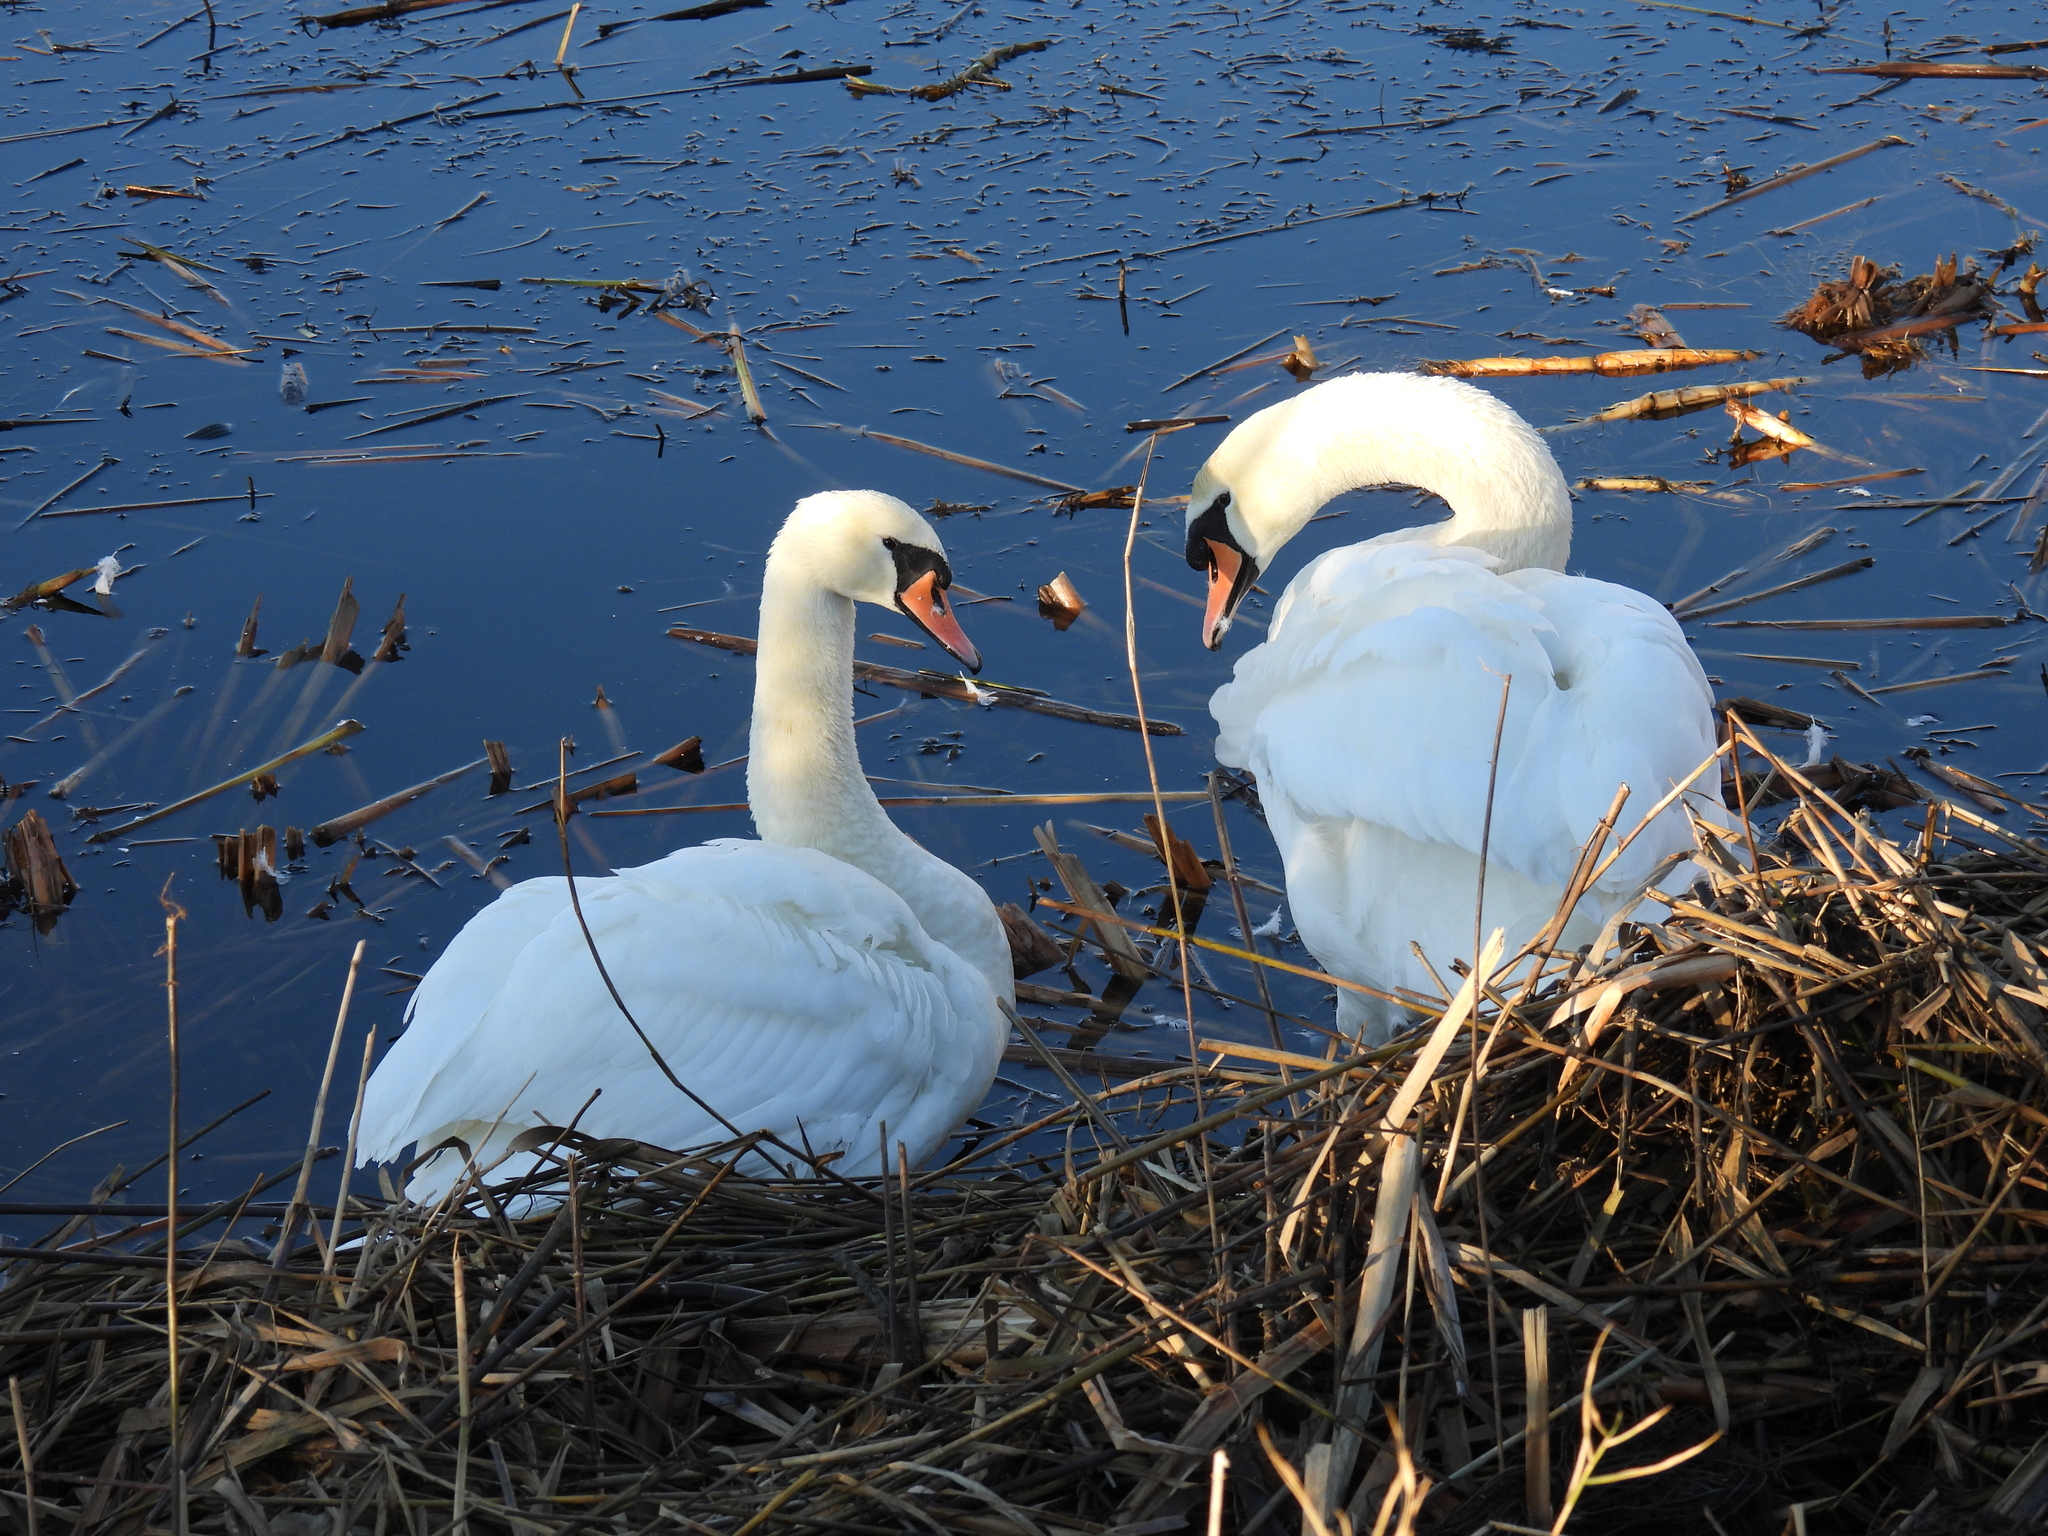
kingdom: Animalia
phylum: Chordata
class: Aves
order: Anseriformes
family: Anatidae
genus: Cygnus
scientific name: Cygnus olor
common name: Mute swan
